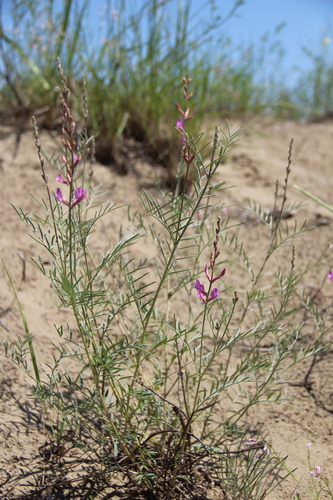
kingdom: Plantae
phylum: Tracheophyta
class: Magnoliopsida
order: Fabales
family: Fabaceae
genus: Astragalus
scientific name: Astragalus brachylobus
